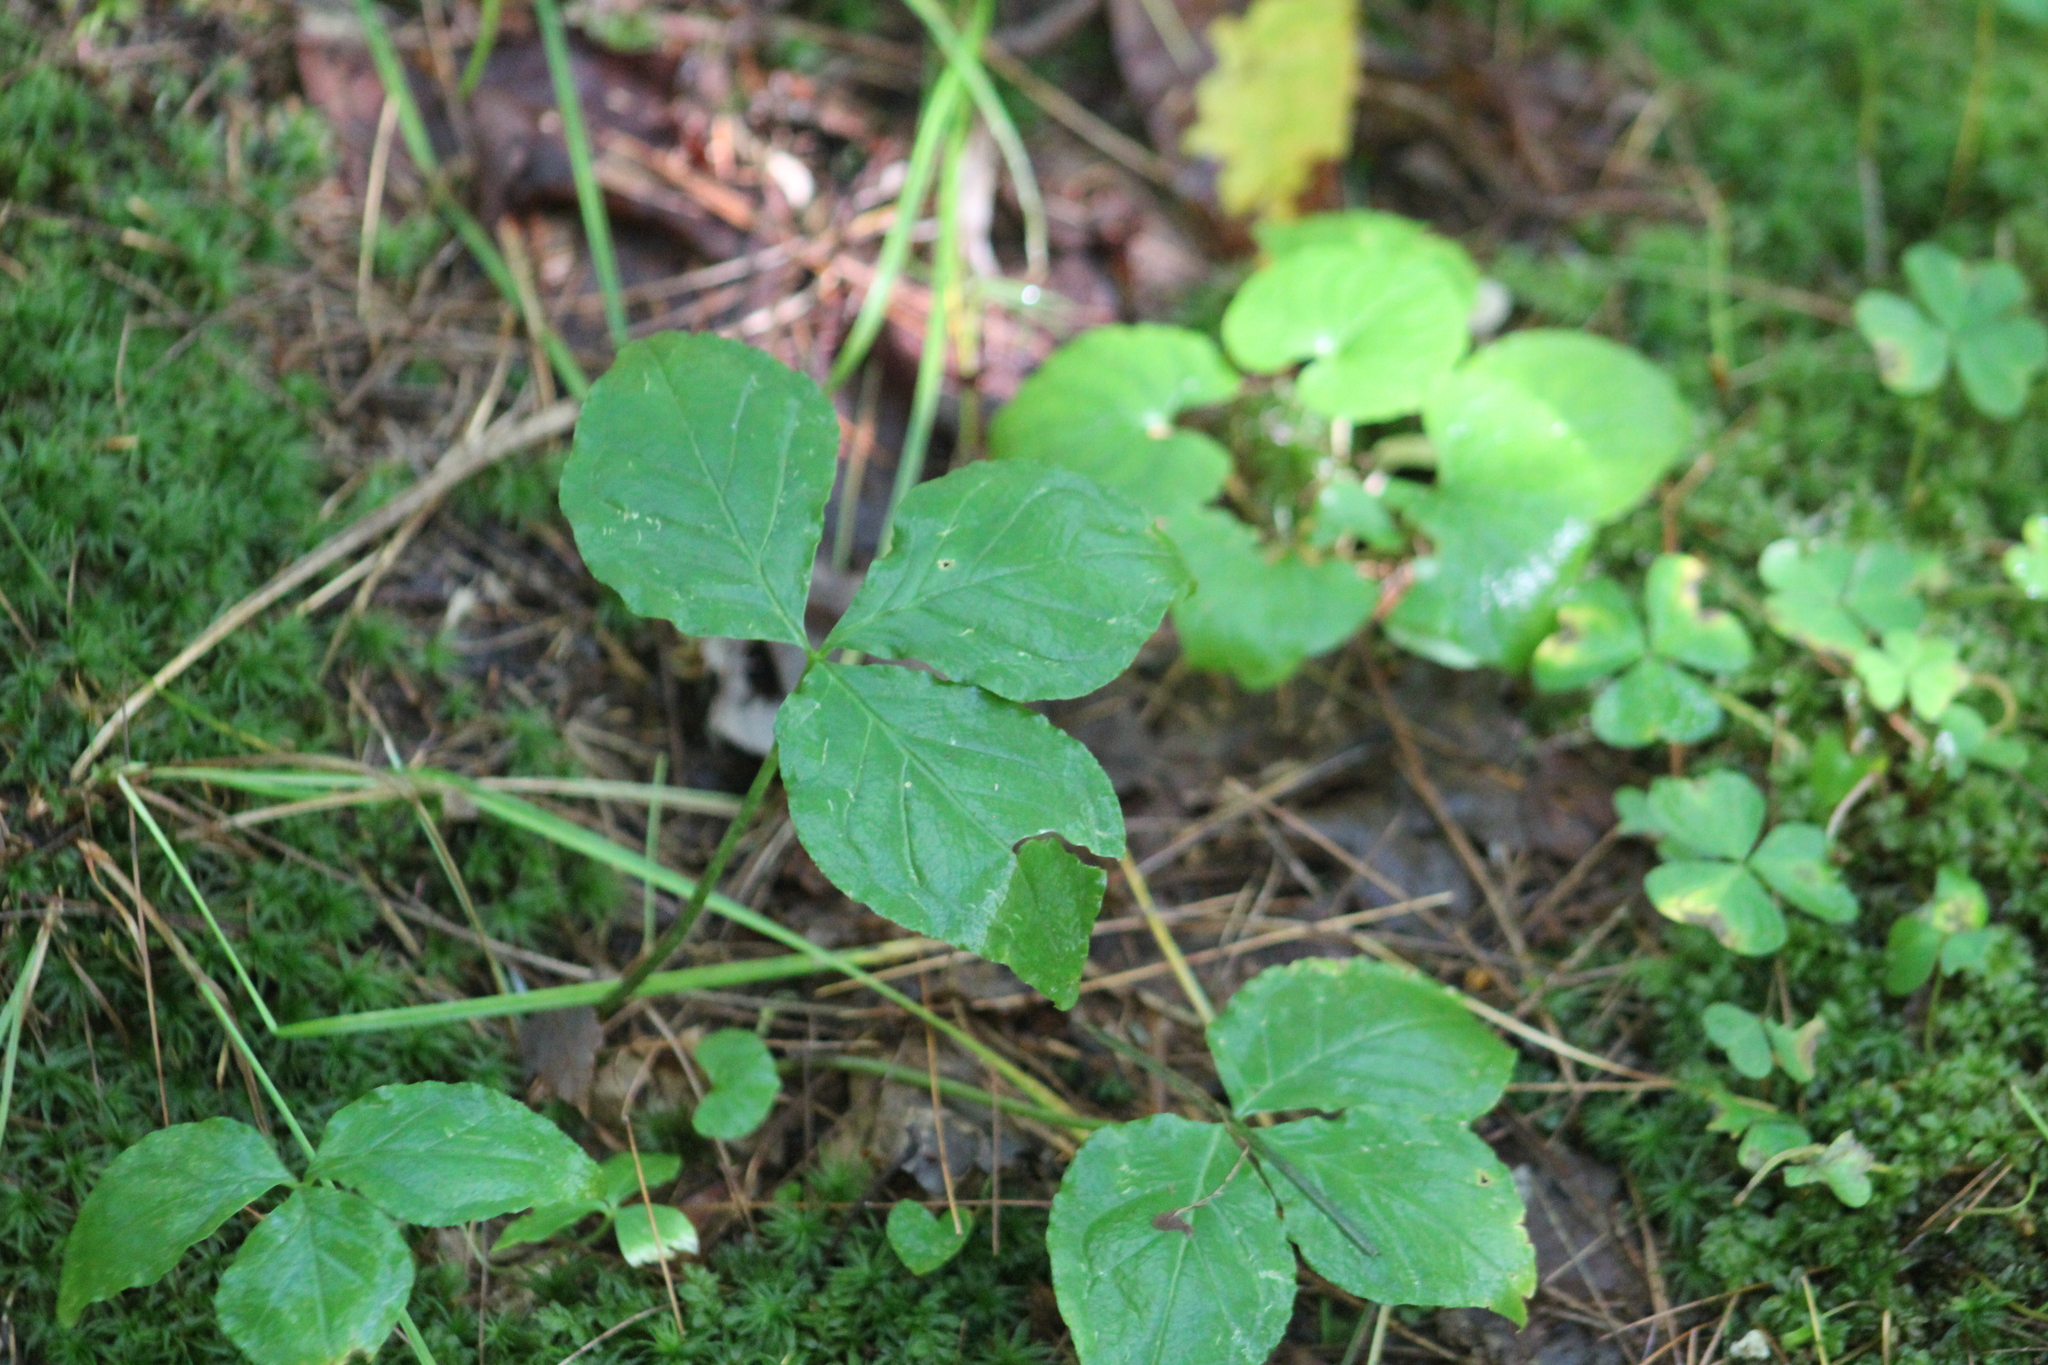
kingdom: Plantae
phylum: Tracheophyta
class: Liliopsida
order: Alismatales
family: Araceae
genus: Arisaema
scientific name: Arisaema triphyllum
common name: Jack-in-the-pulpit
